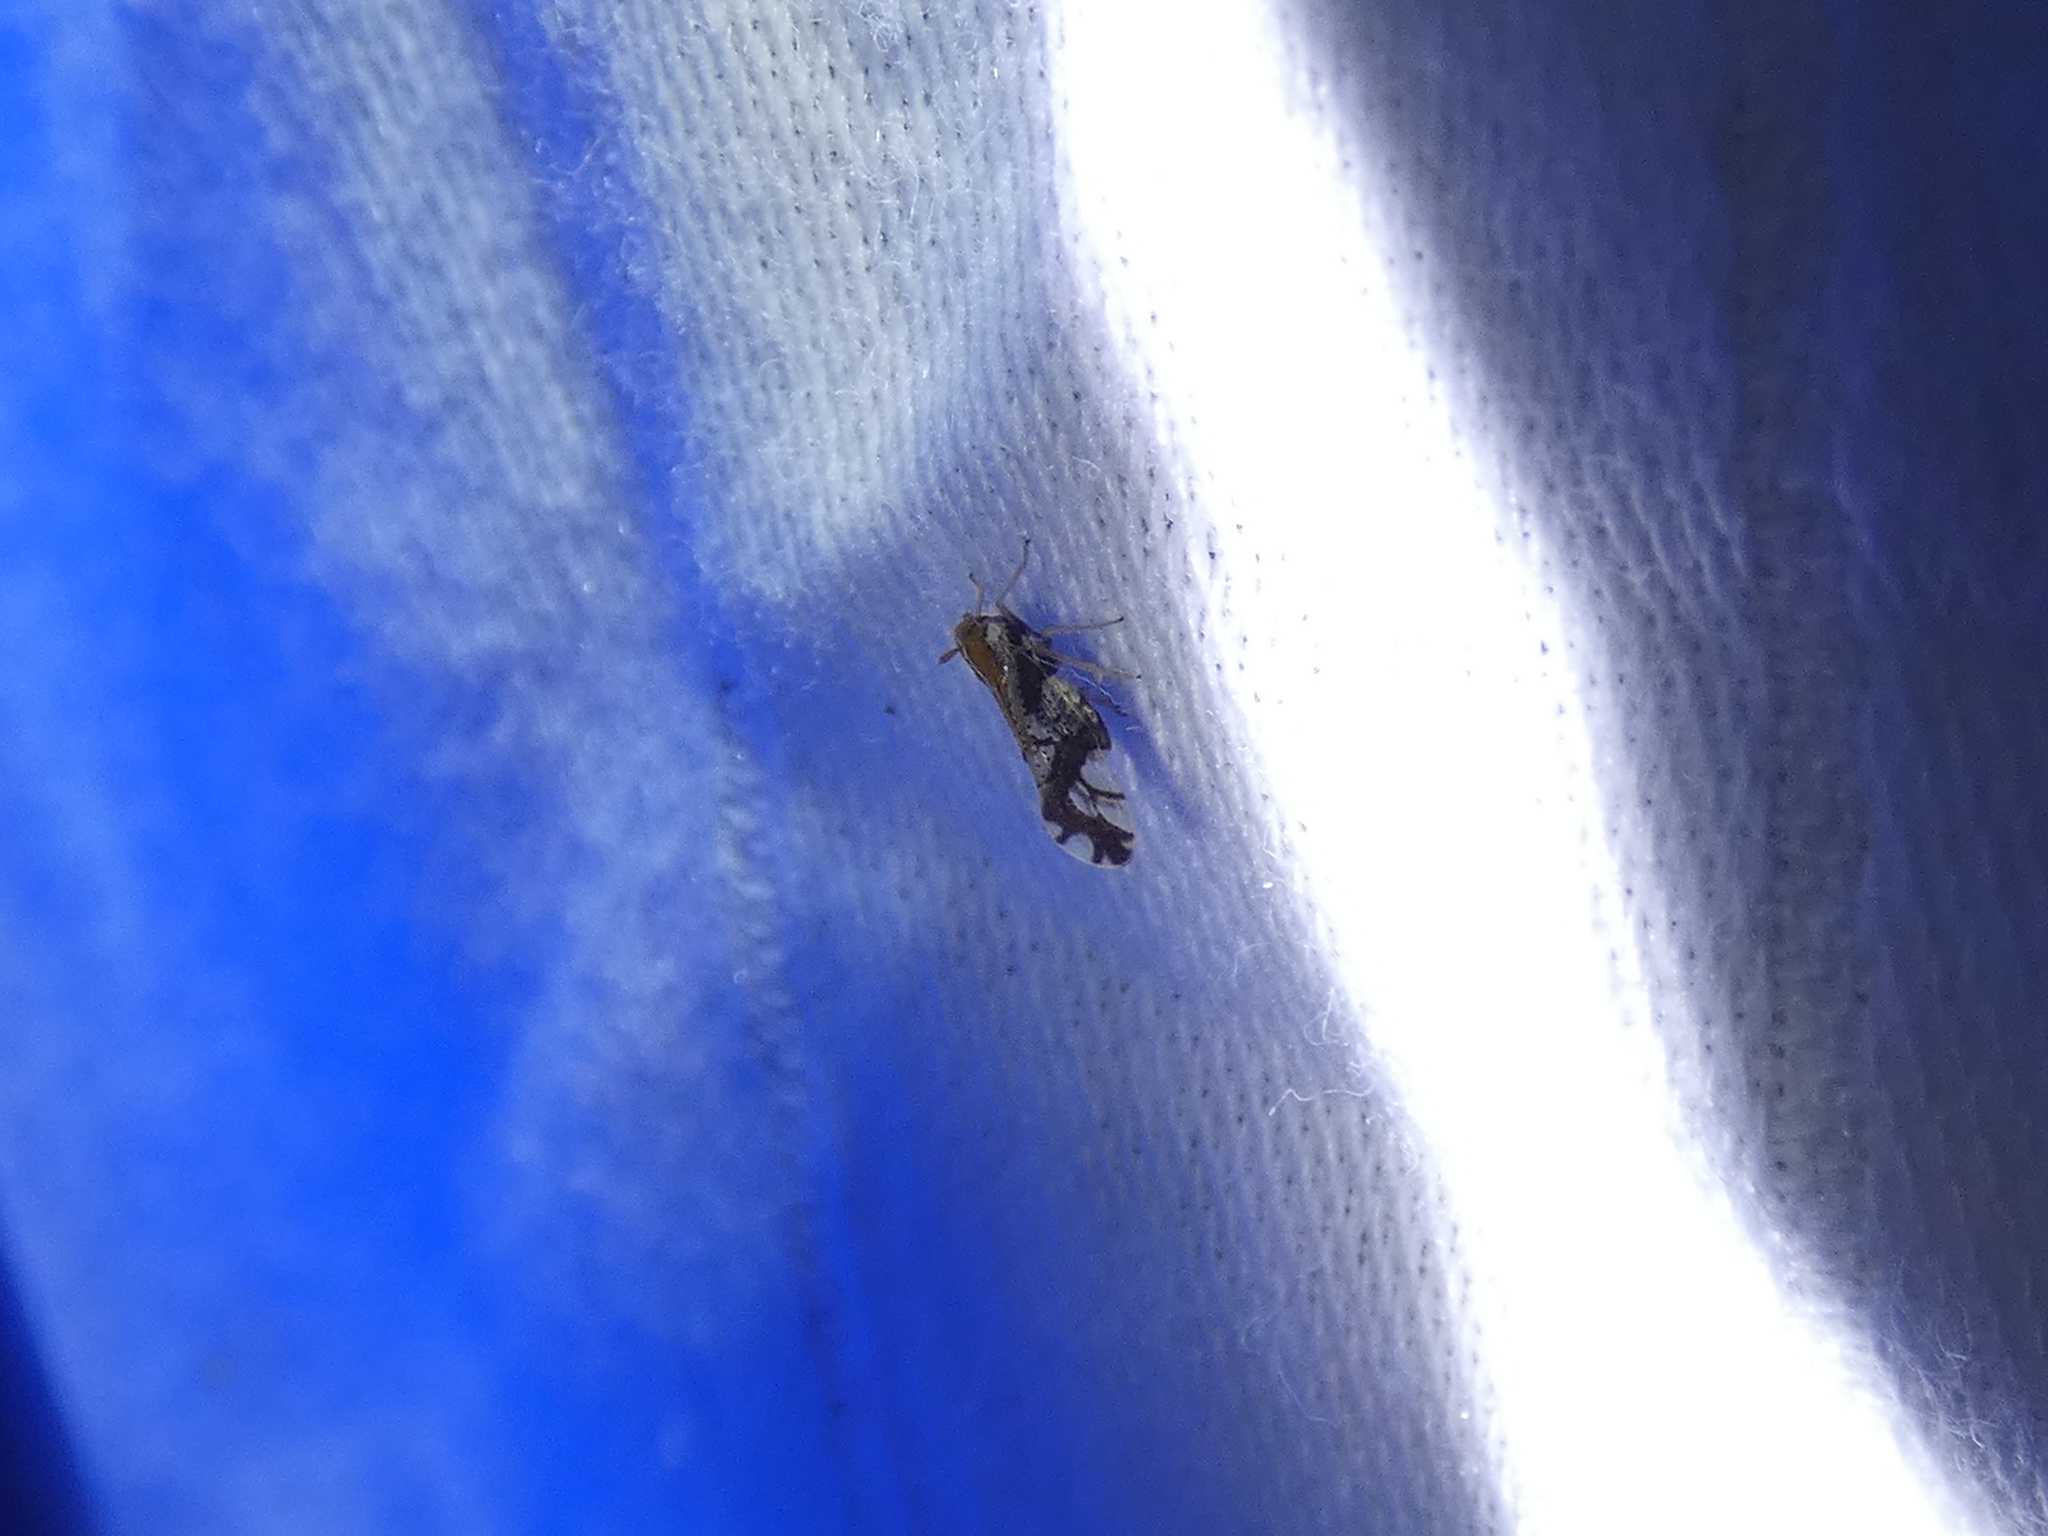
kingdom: Animalia
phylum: Arthropoda
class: Insecta
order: Hemiptera
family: Delphacidae
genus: Liburniella
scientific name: Liburniella ornata
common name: Ornate planthopper
